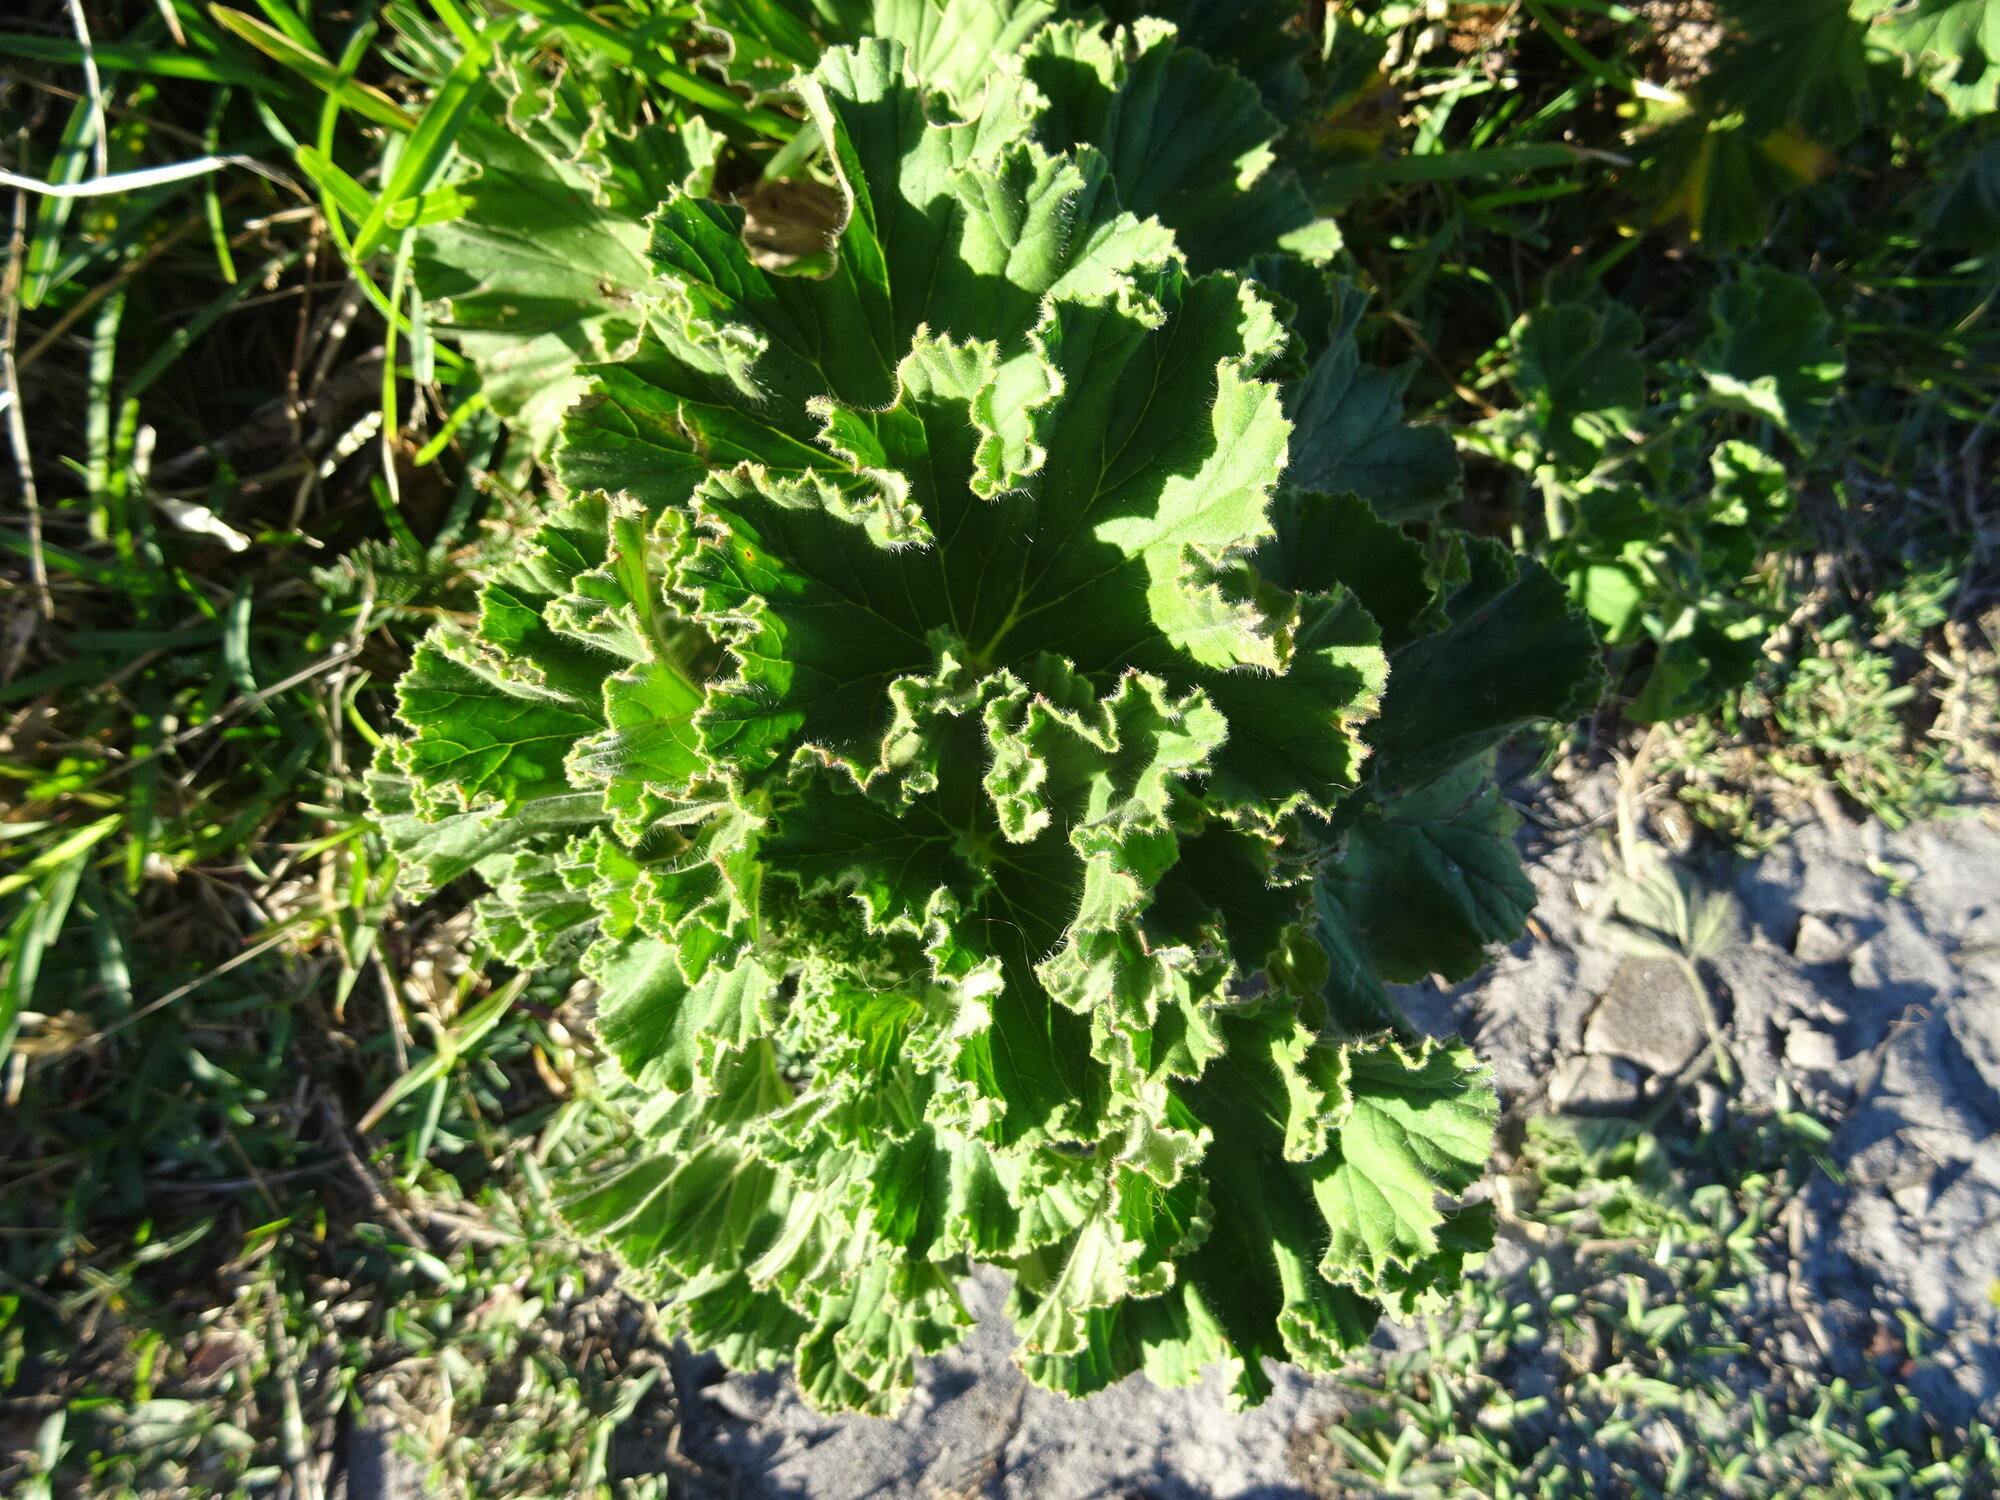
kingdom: Plantae
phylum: Tracheophyta
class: Magnoliopsida
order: Geraniales
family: Geraniaceae
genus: Pelargonium
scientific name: Pelargonium cucullatum
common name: Tree pelargonium
